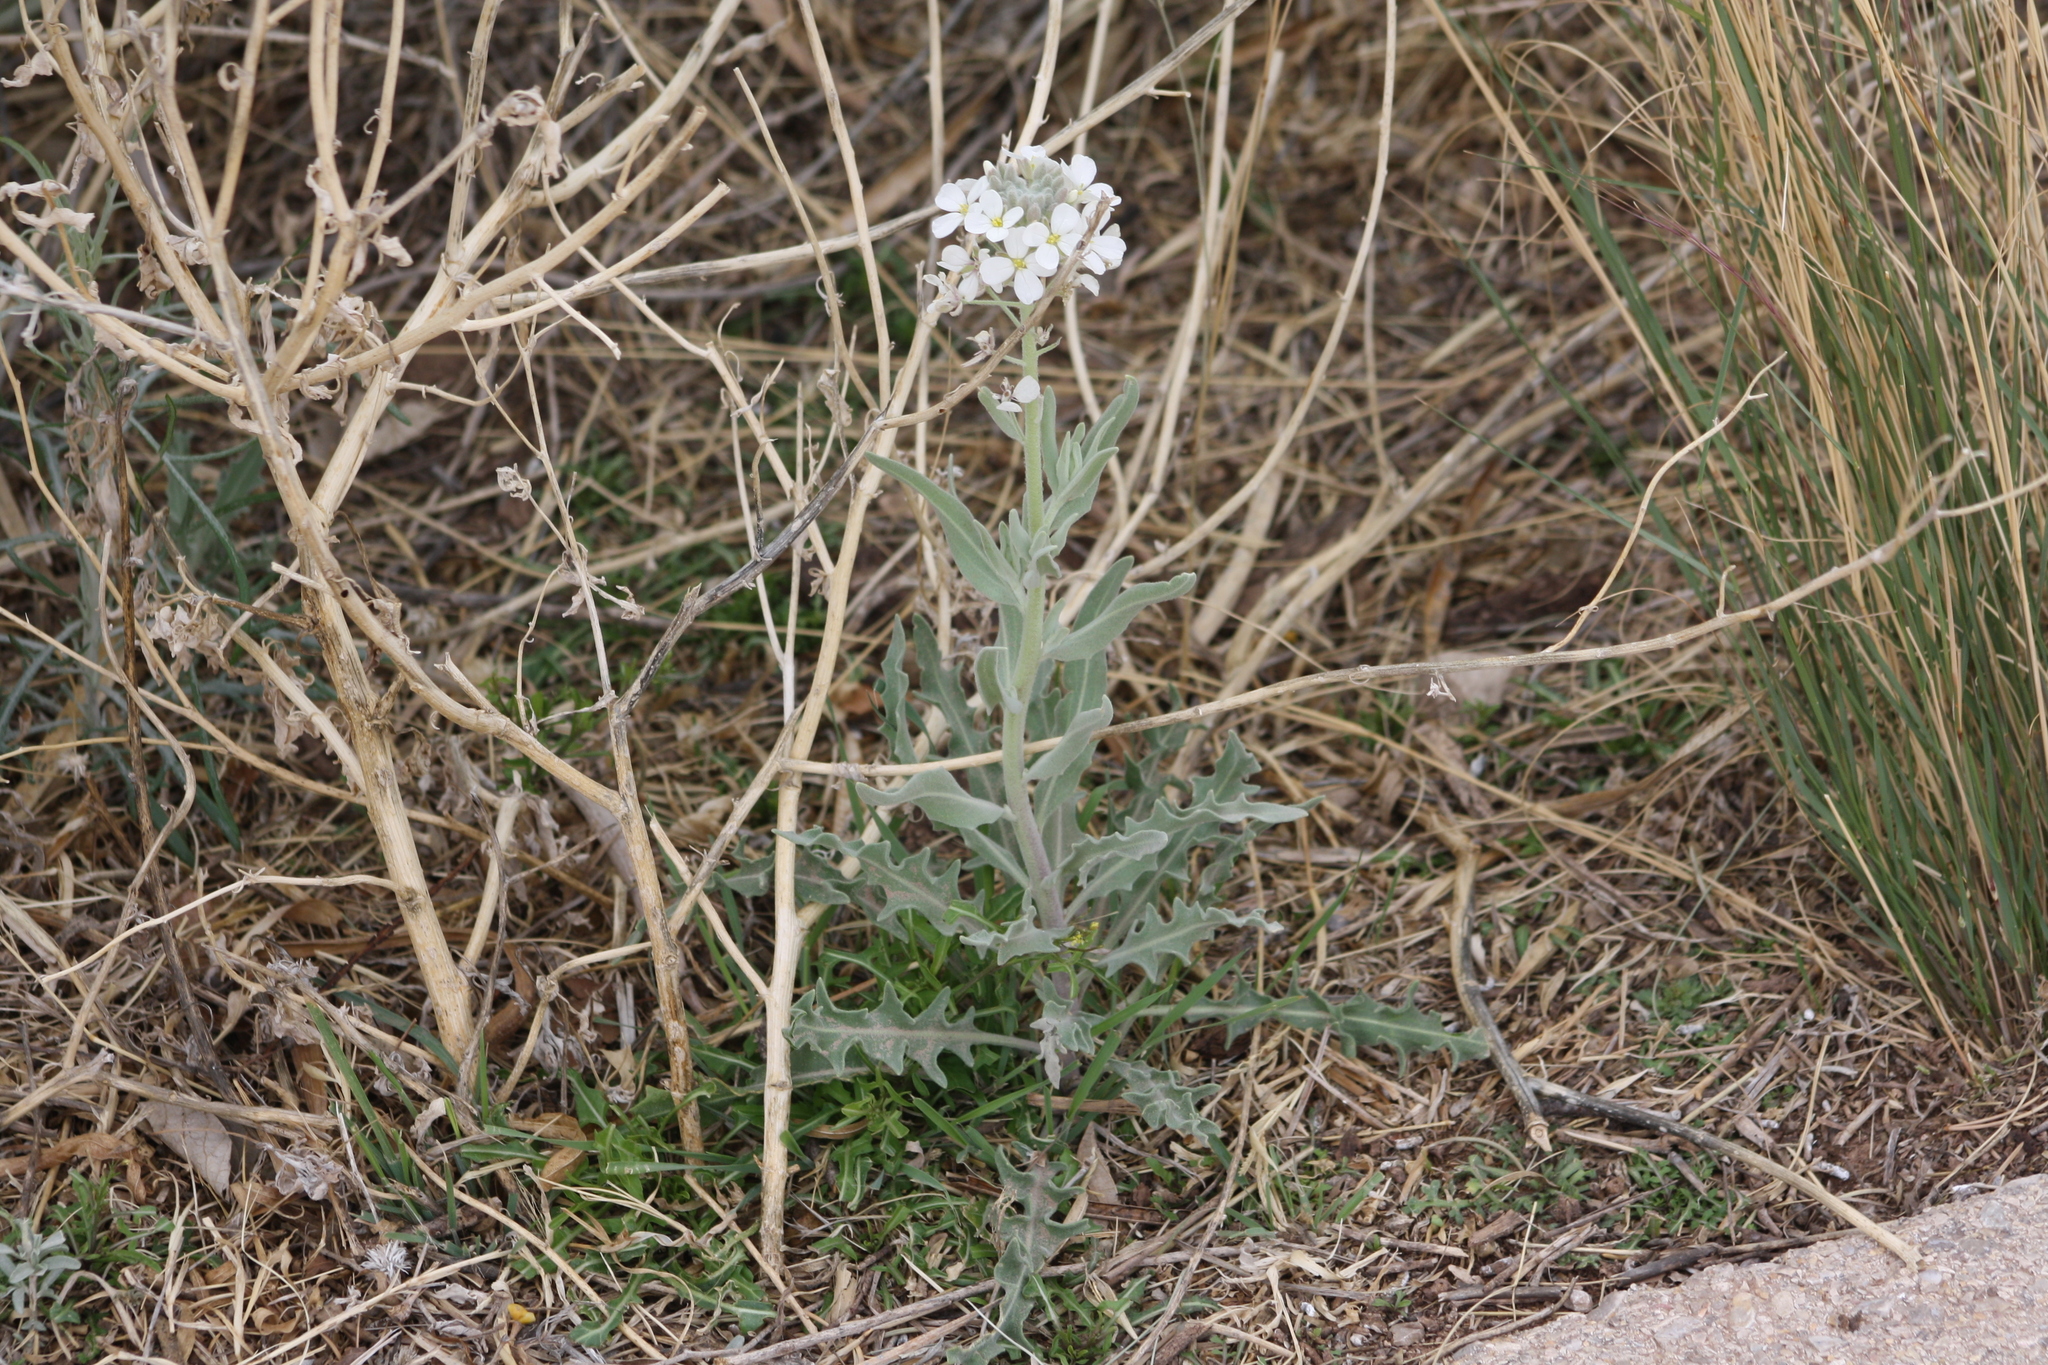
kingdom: Plantae
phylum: Tracheophyta
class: Magnoliopsida
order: Brassicales
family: Brassicaceae
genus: Dimorphocarpa
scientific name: Dimorphocarpa wislizenii
